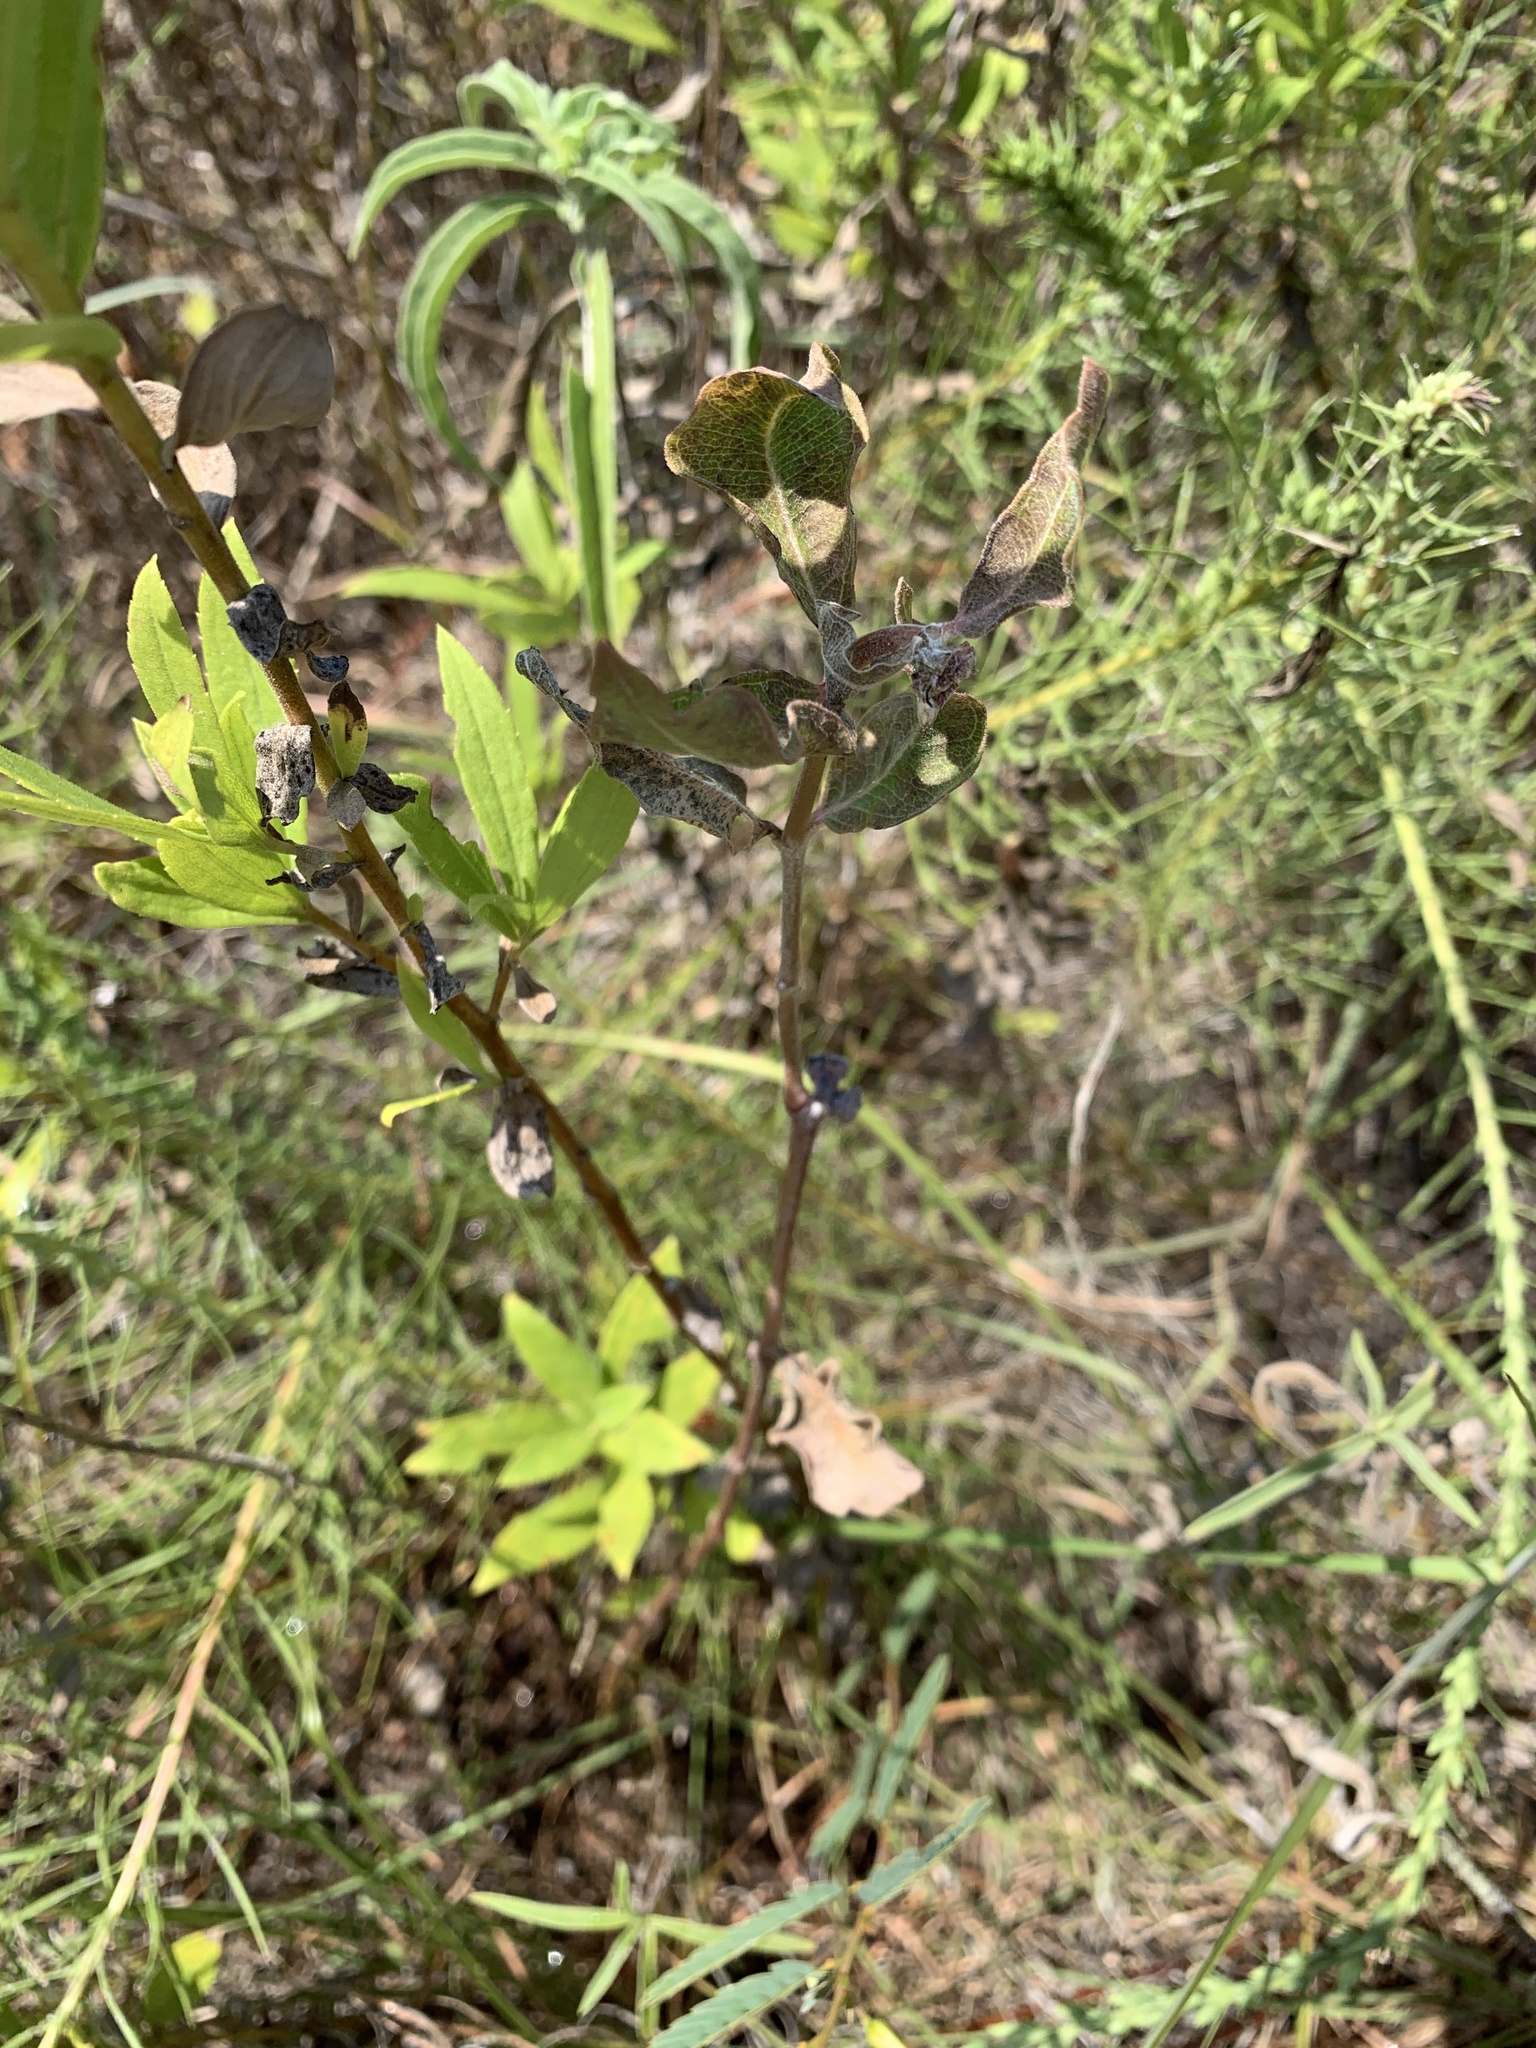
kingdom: Plantae
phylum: Tracheophyta
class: Magnoliopsida
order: Gentianales
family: Apocynaceae
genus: Asclepias
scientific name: Asclepias viridiflora
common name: Green comet milkweed
